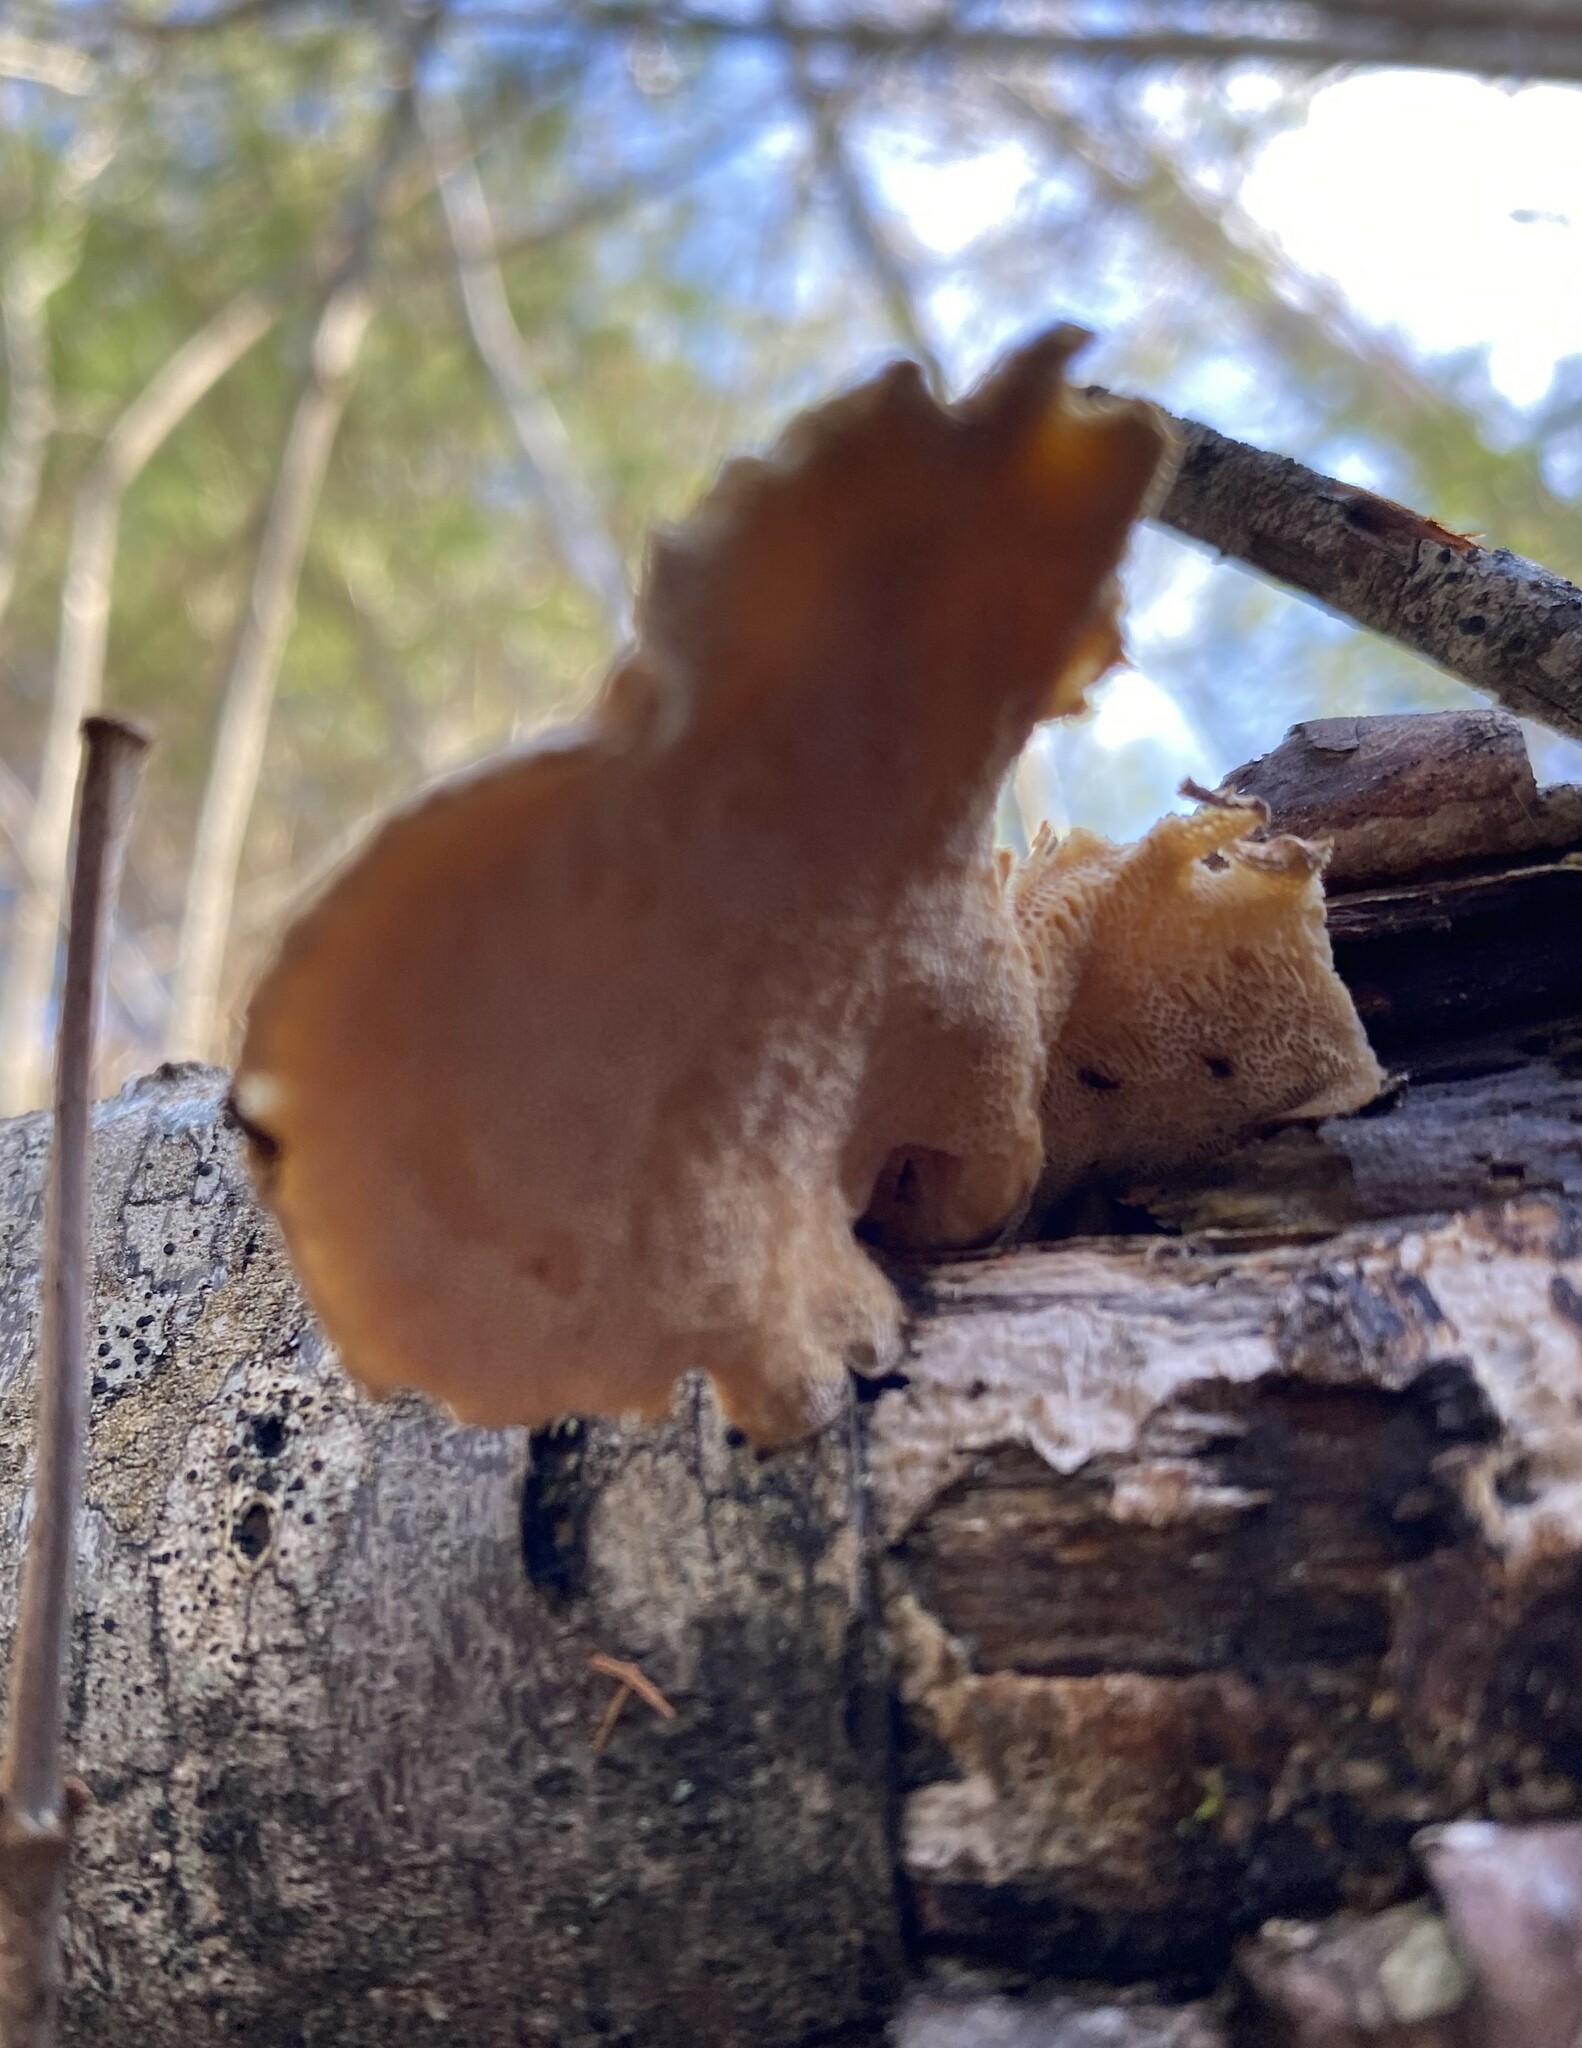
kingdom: Fungi
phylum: Basidiomycota
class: Agaricomycetes
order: Polyporales
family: Fomitopsidaceae
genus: Fomitopsis
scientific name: Fomitopsis betulina
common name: Birch polypore
